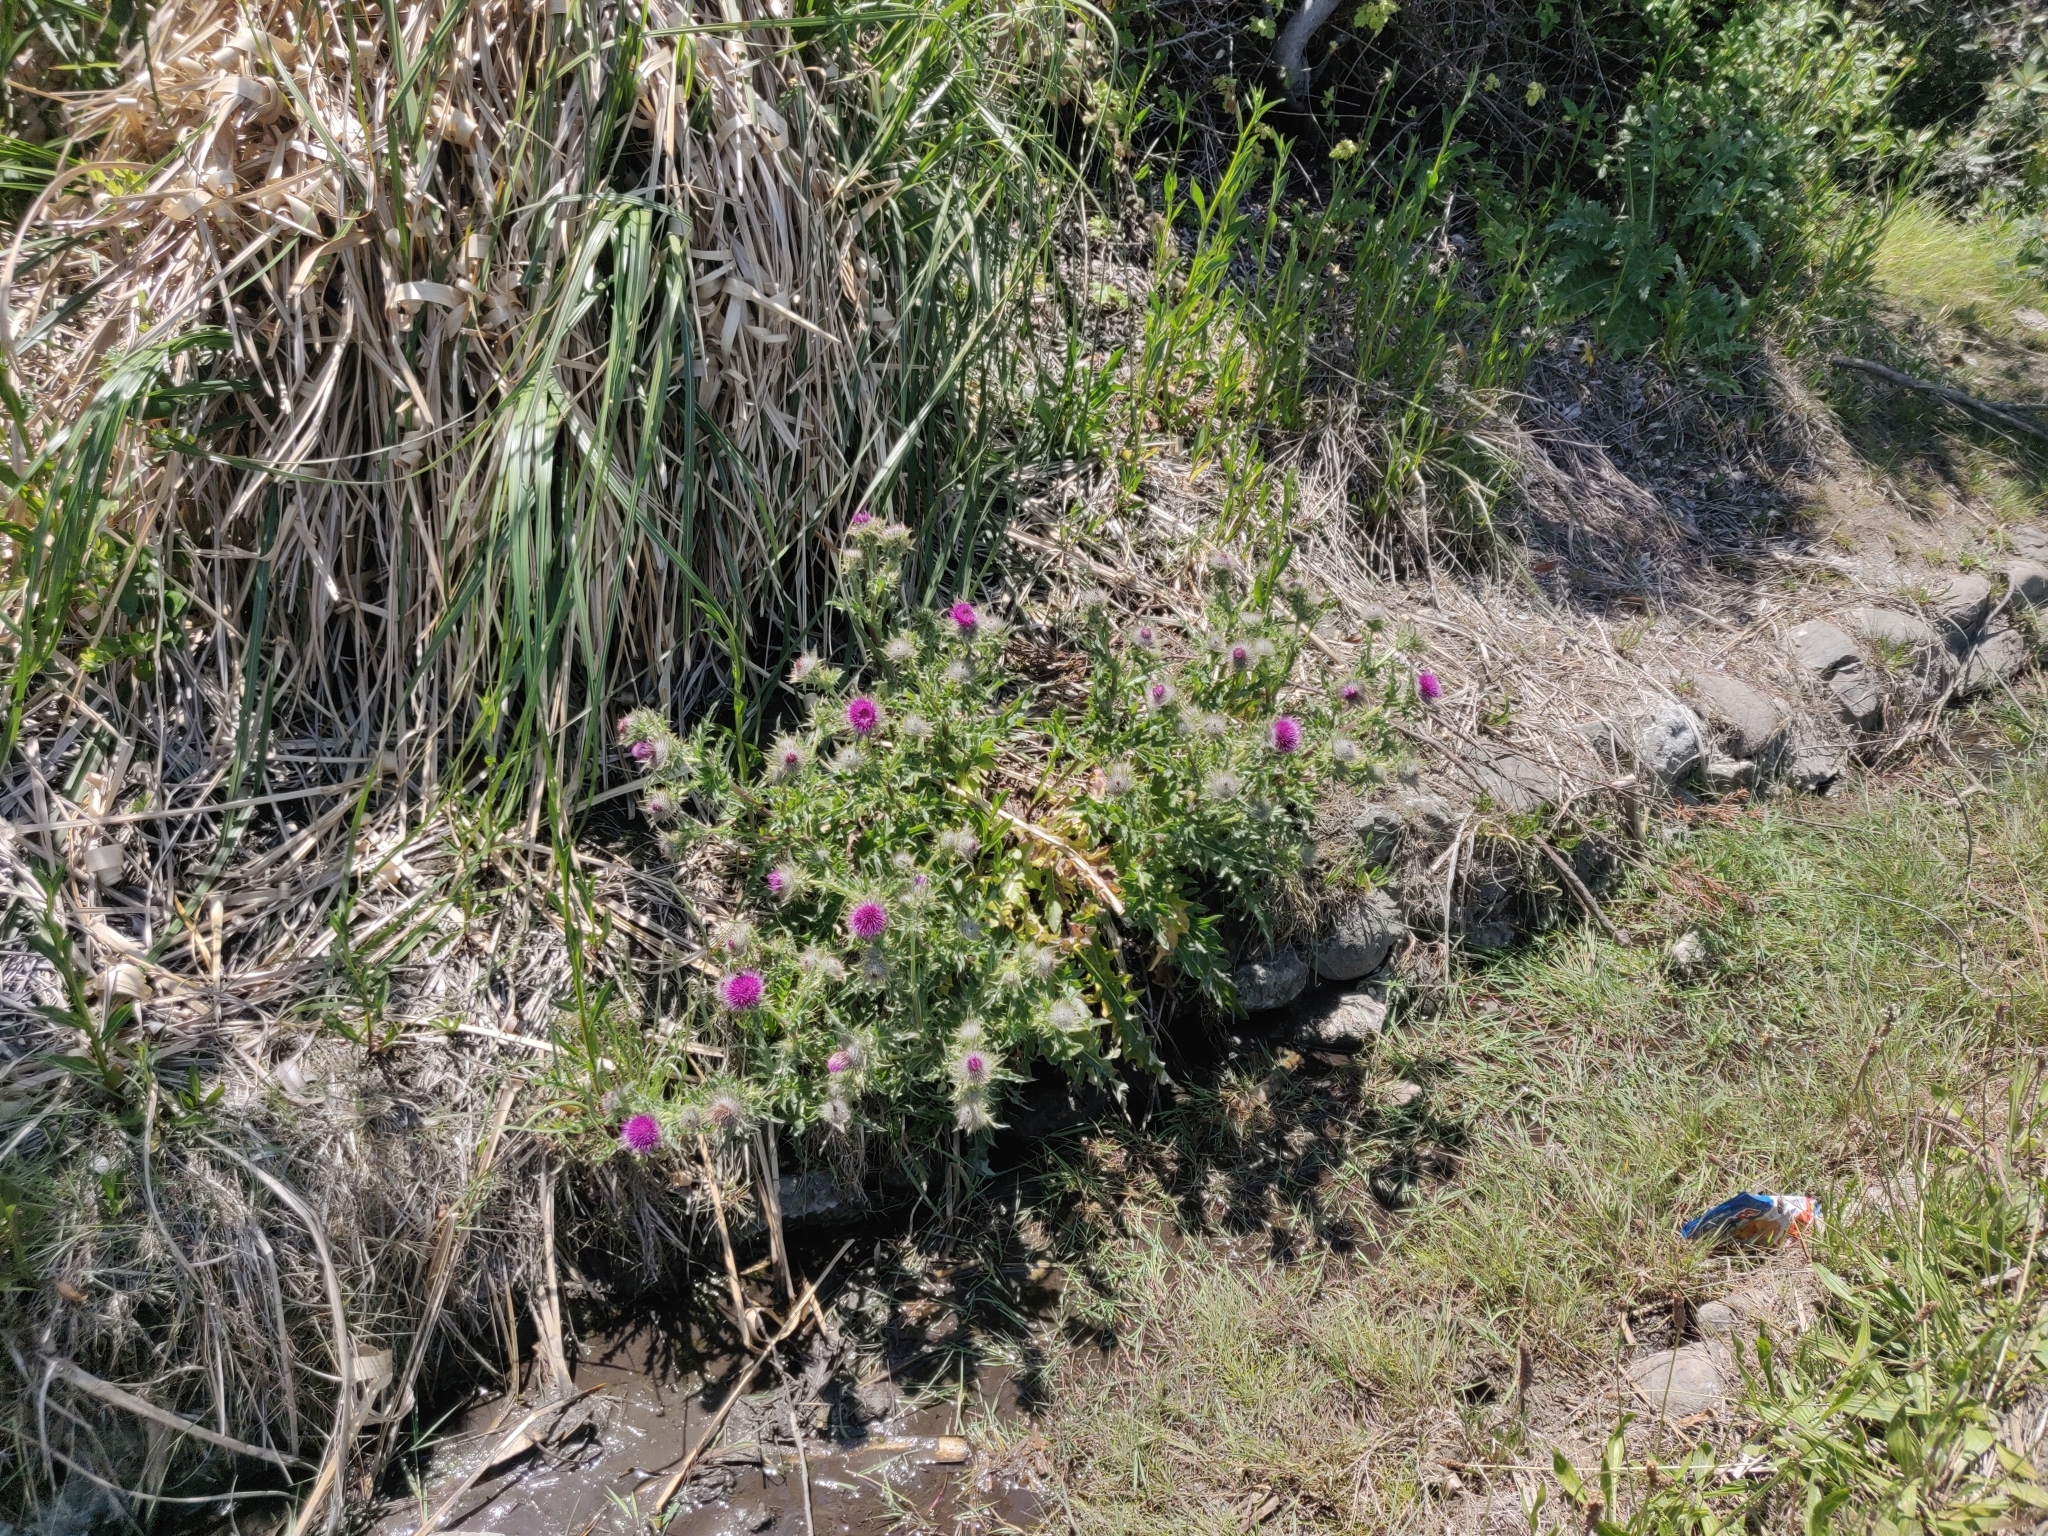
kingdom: Plantae
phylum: Tracheophyta
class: Magnoliopsida
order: Asterales
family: Asteraceae
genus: Cirsium
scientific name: Cirsium andrewsii
